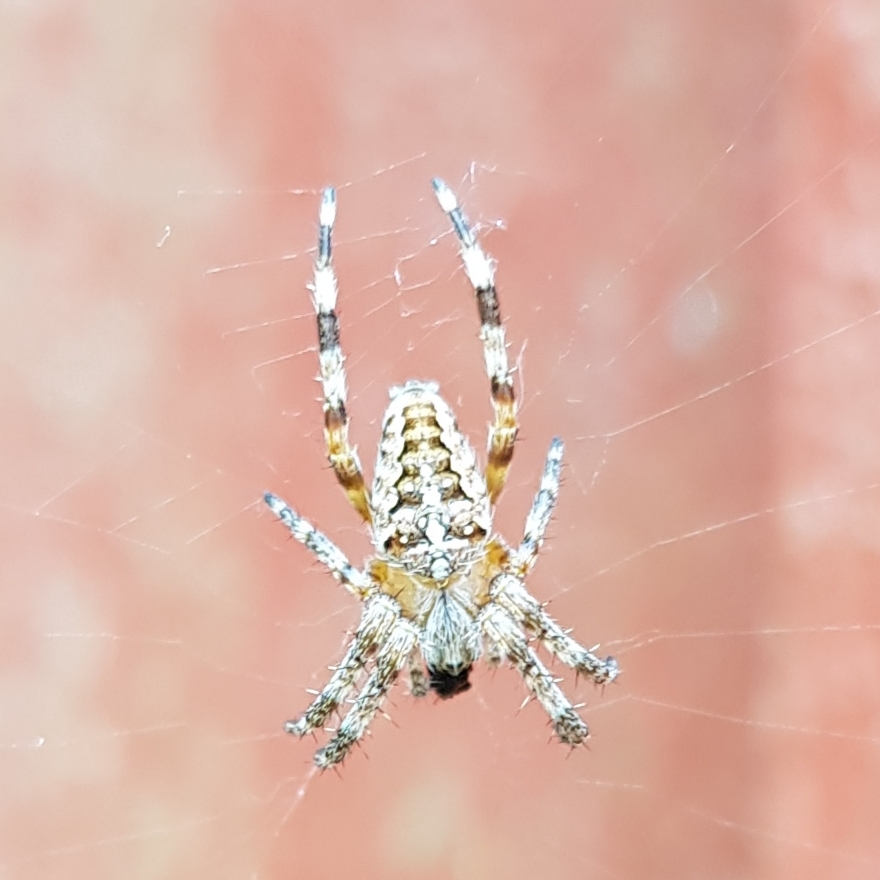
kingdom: Animalia
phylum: Arthropoda
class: Arachnida
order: Araneae
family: Araneidae
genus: Araneus
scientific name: Araneus diadematus
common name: Cross orbweaver
